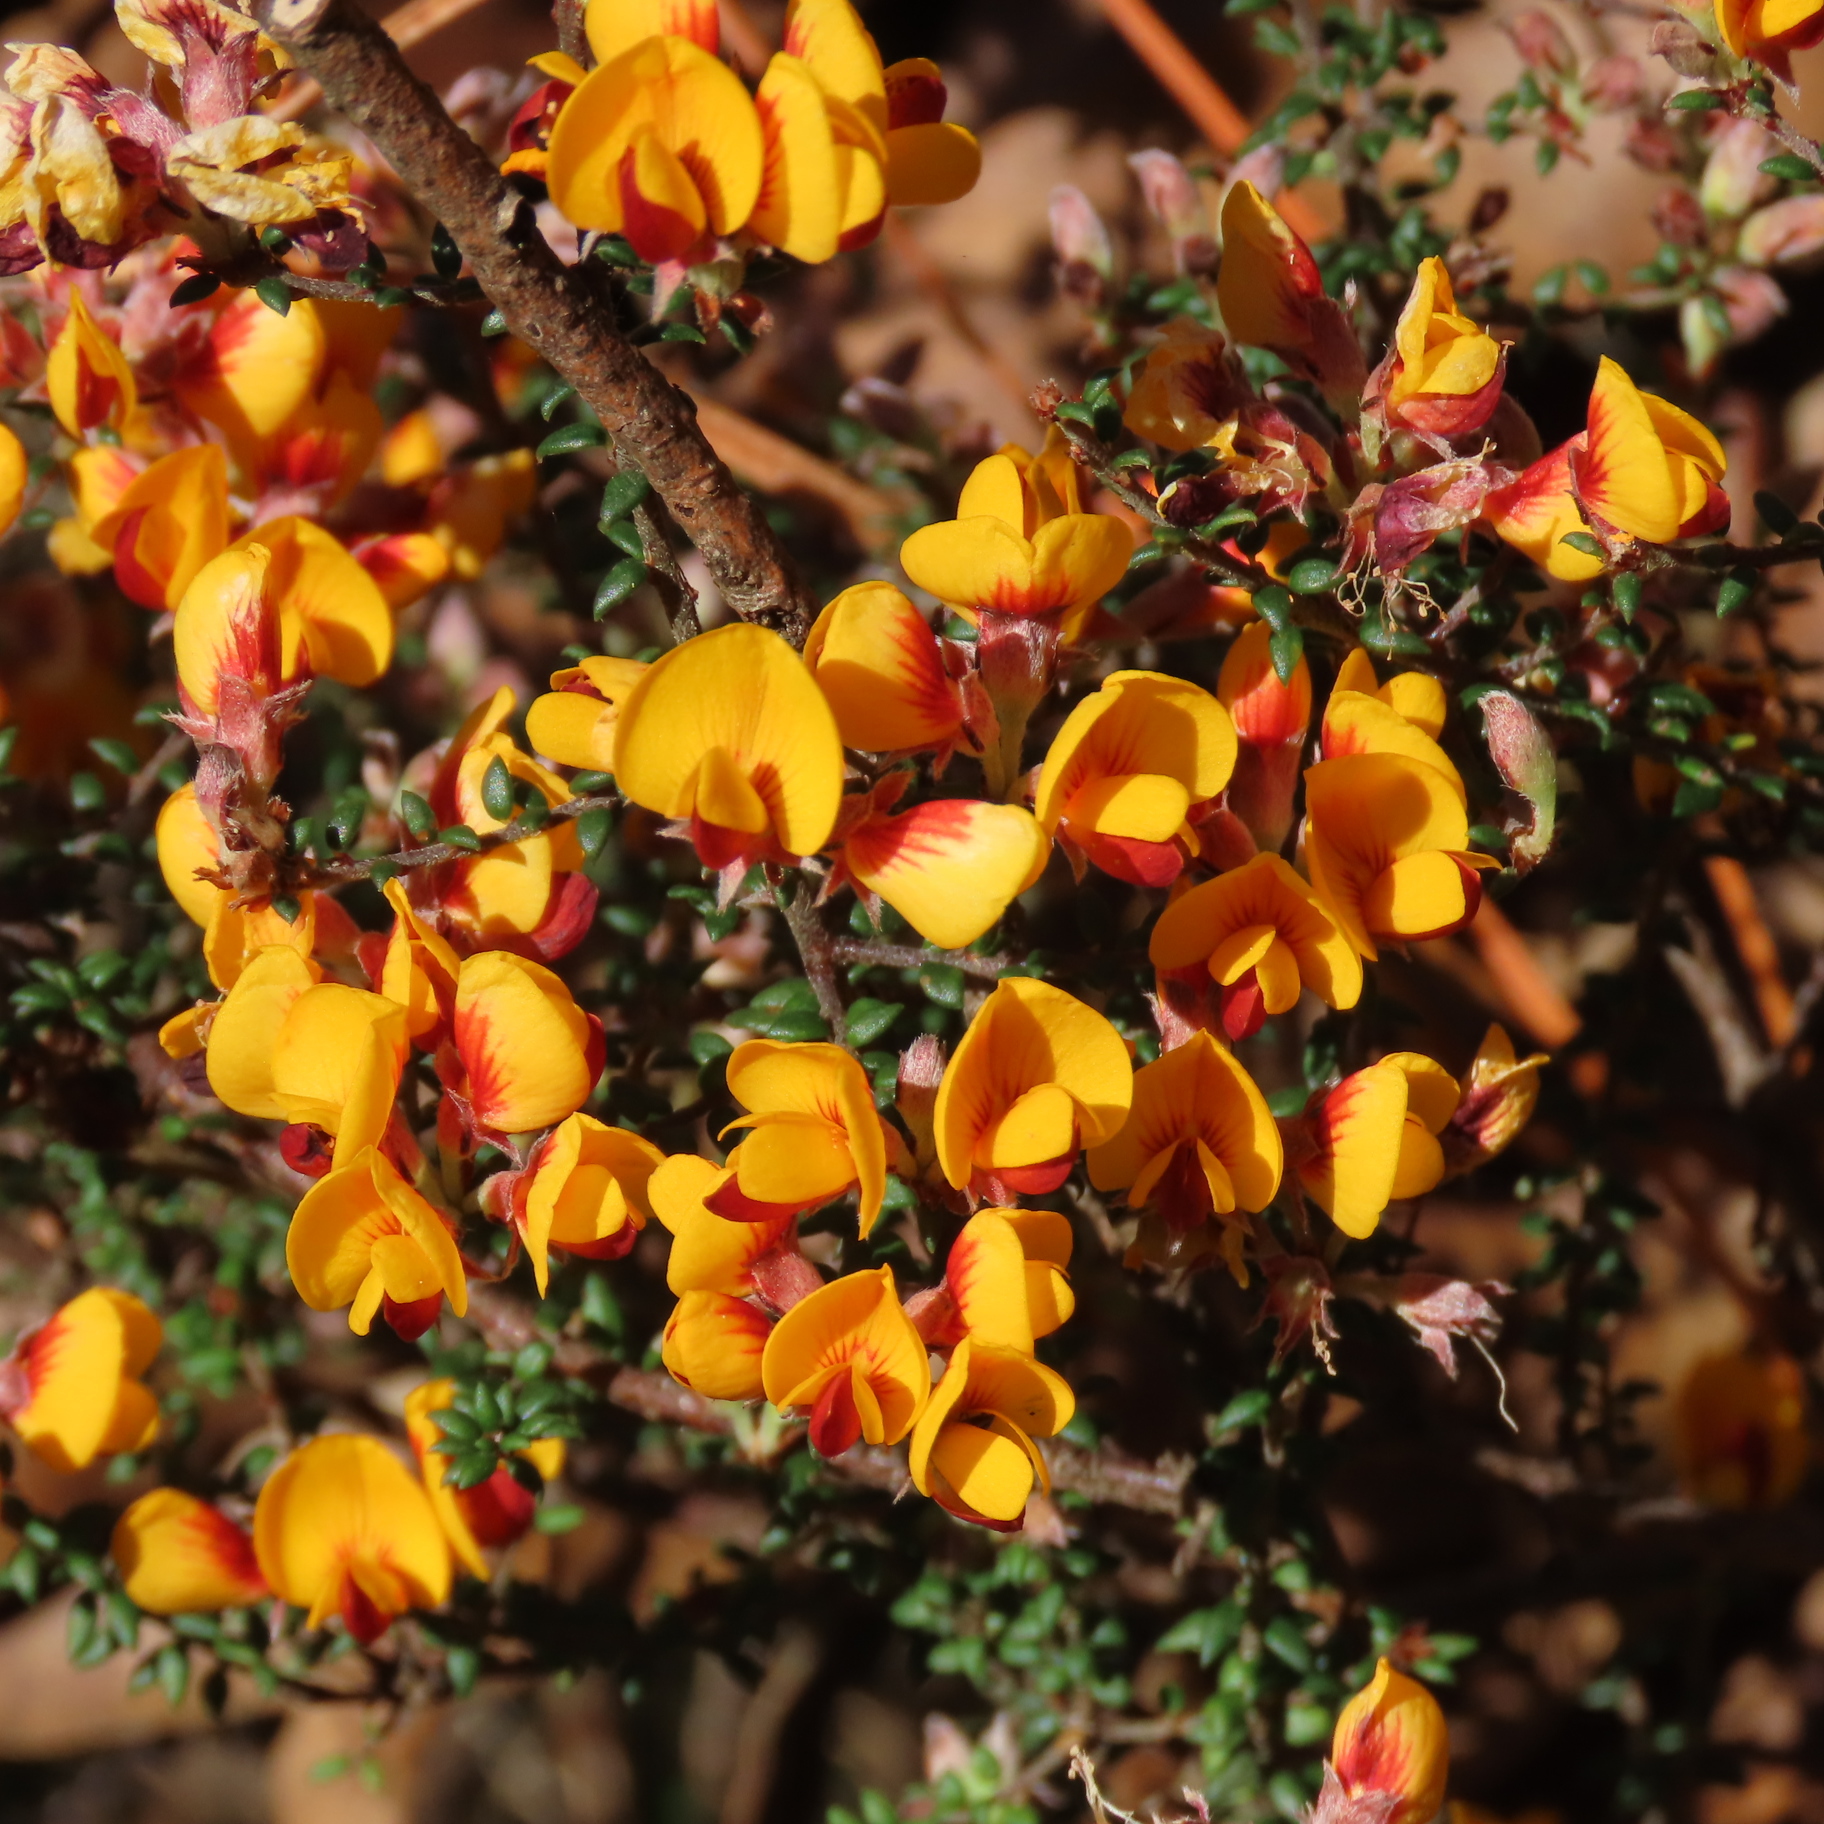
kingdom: Plantae
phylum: Tracheophyta
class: Magnoliopsida
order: Fabales
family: Fabaceae
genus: Pultenaea
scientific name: Pultenaea gunnii
